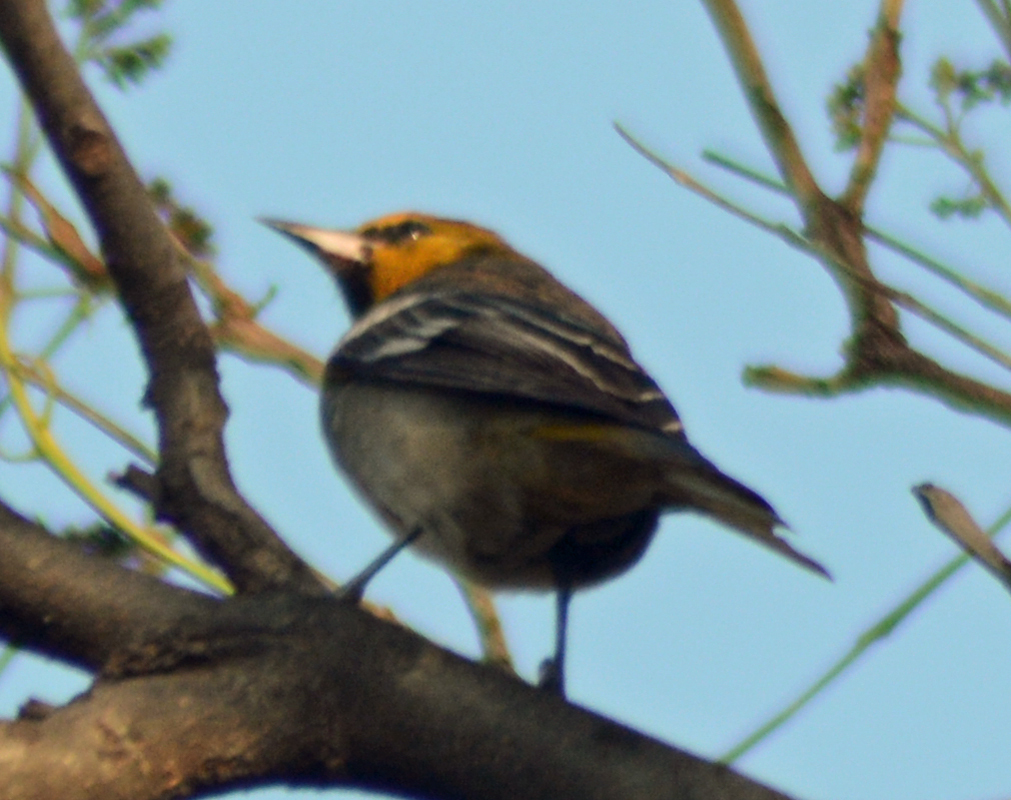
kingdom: Animalia
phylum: Chordata
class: Aves
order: Passeriformes
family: Icteridae
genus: Icterus
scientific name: Icterus abeillei
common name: Black-backed oriole
